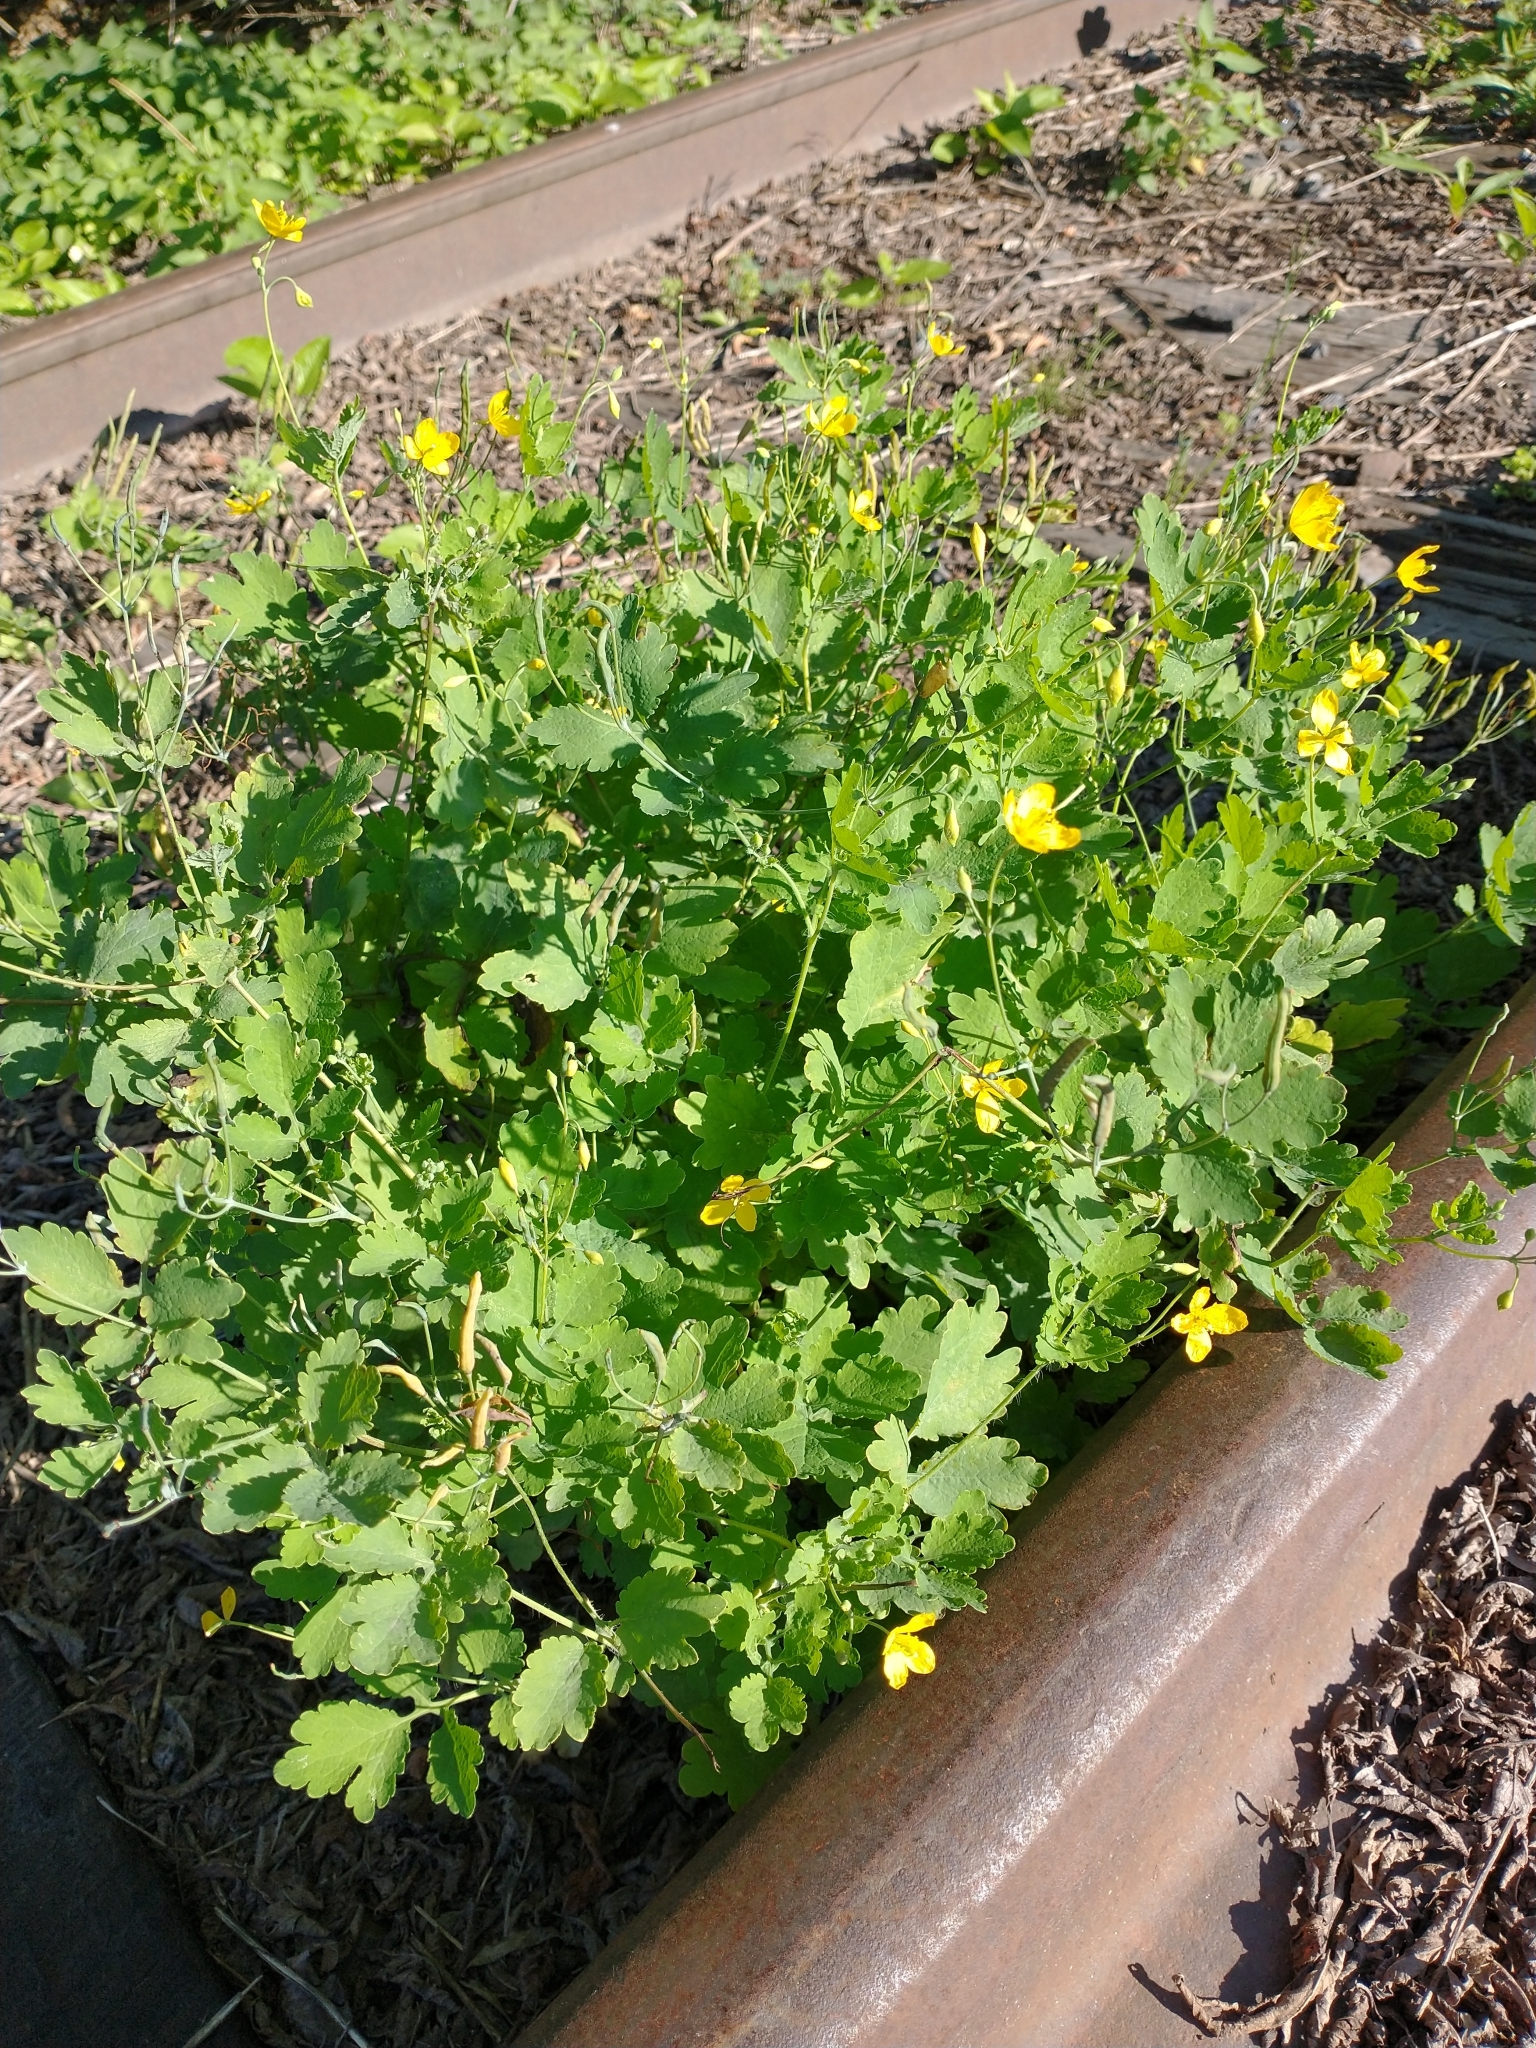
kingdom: Plantae
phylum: Tracheophyta
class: Magnoliopsida
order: Ranunculales
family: Papaveraceae
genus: Chelidonium
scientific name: Chelidonium majus
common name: Greater celandine
